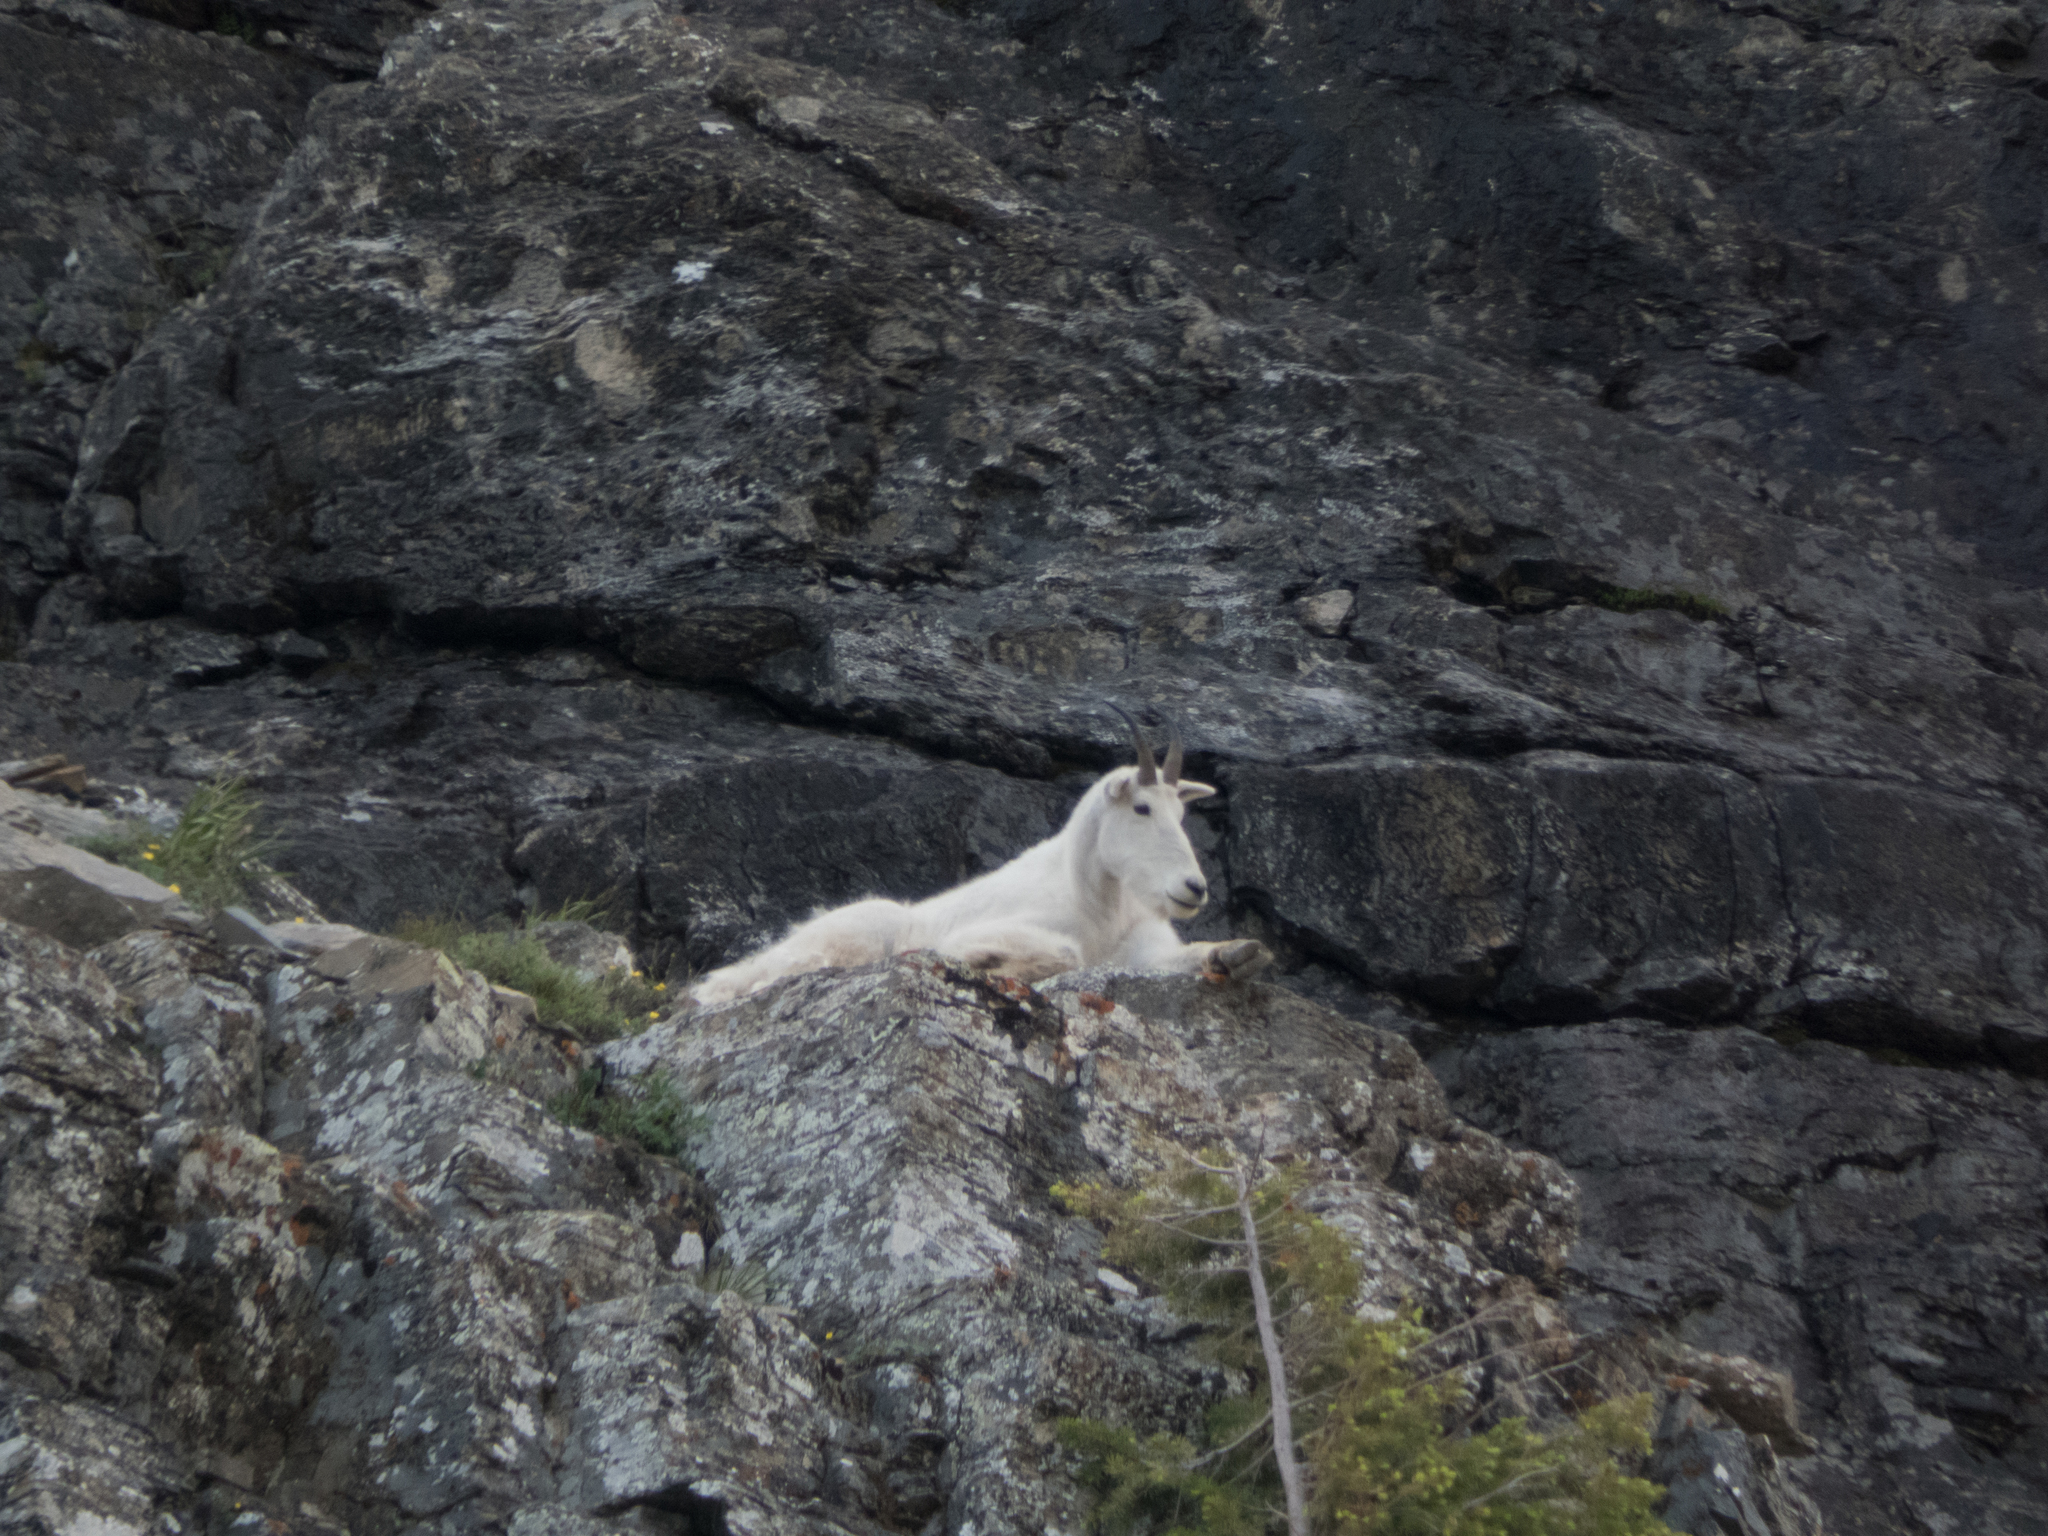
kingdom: Animalia
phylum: Chordata
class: Mammalia
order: Artiodactyla
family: Bovidae
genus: Oreamnos
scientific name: Oreamnos americanus
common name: Mountain goat
